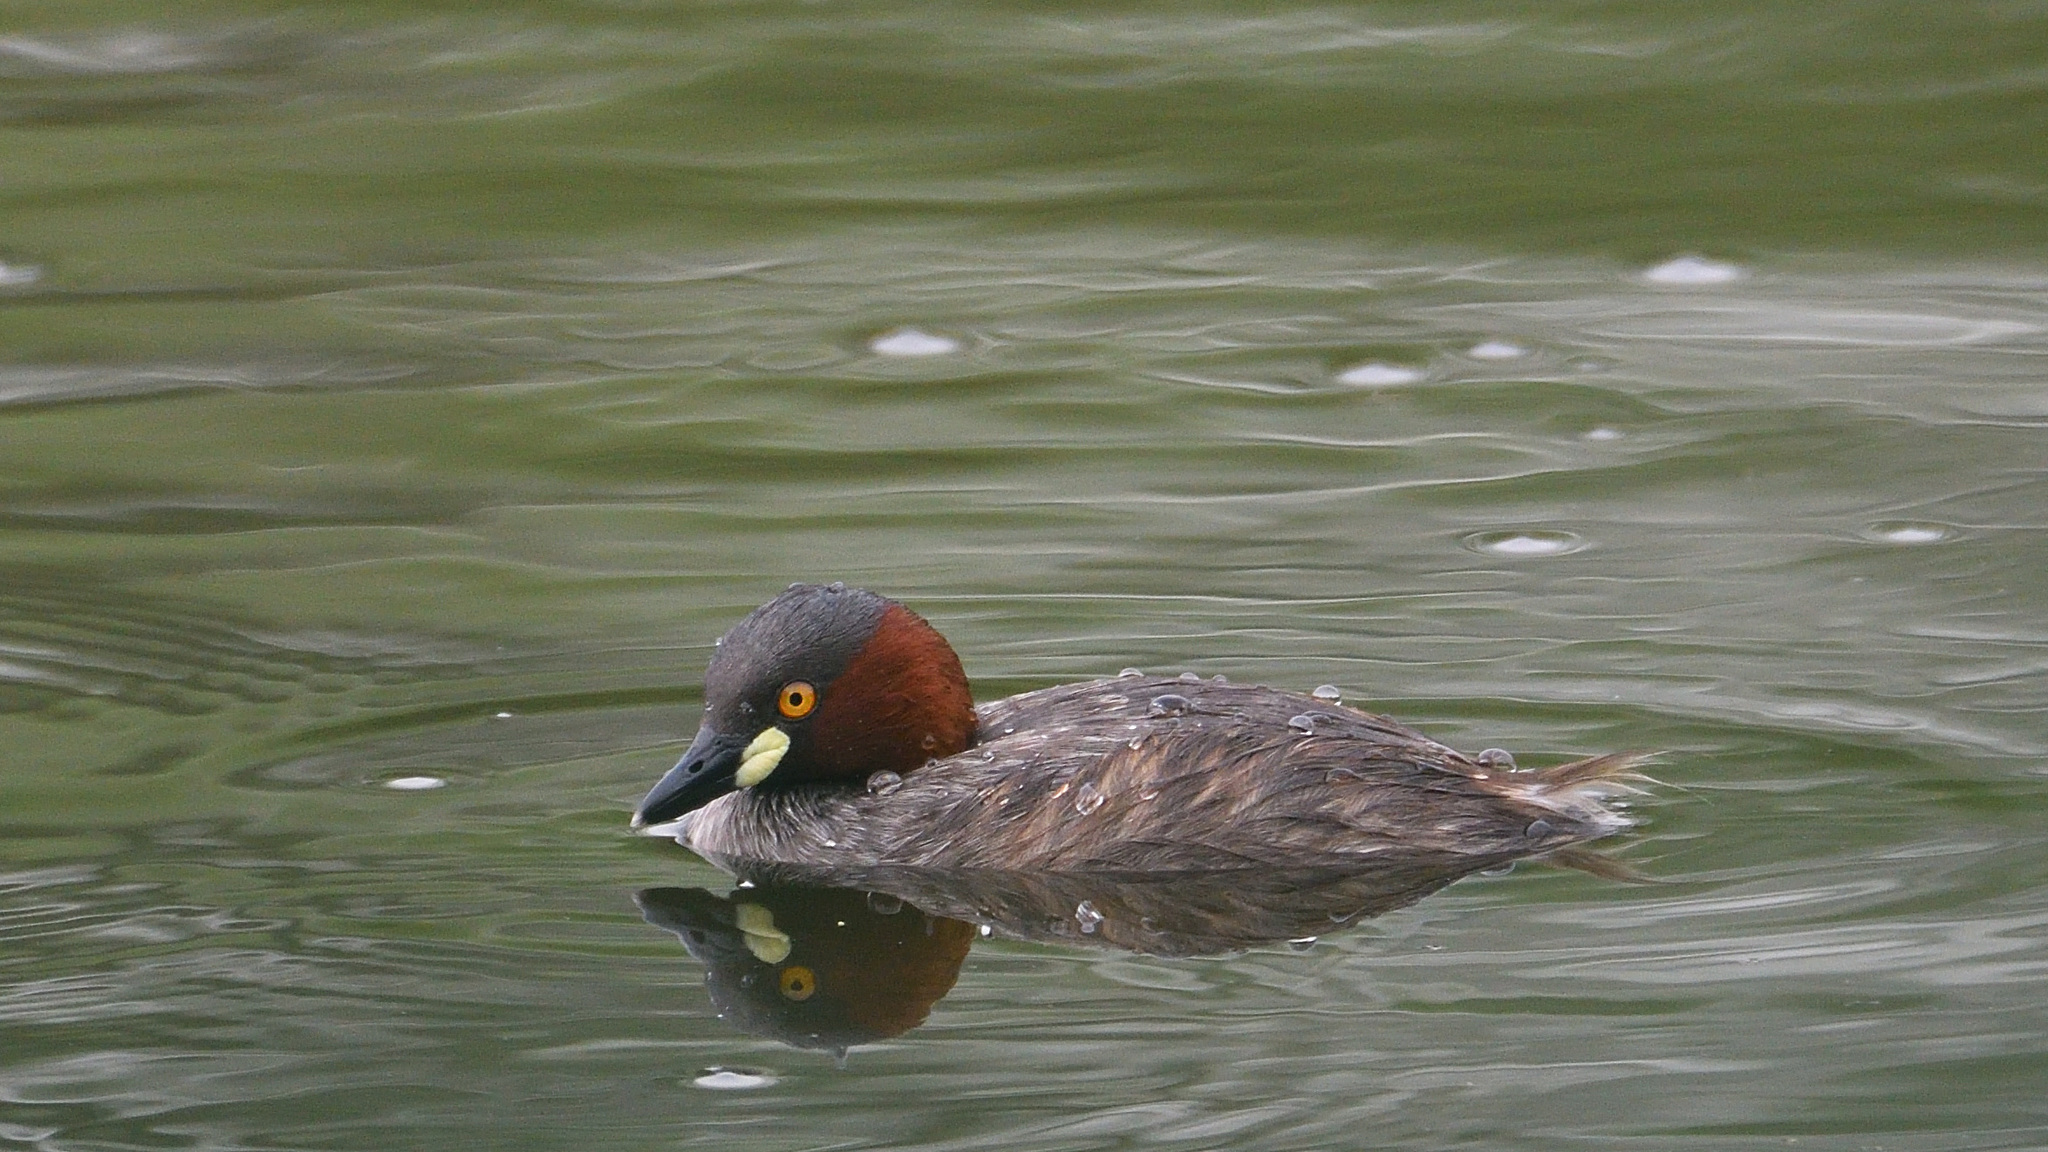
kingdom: Animalia
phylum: Chordata
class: Aves
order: Podicipediformes
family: Podicipedidae
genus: Tachybaptus
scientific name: Tachybaptus ruficollis
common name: Little grebe
